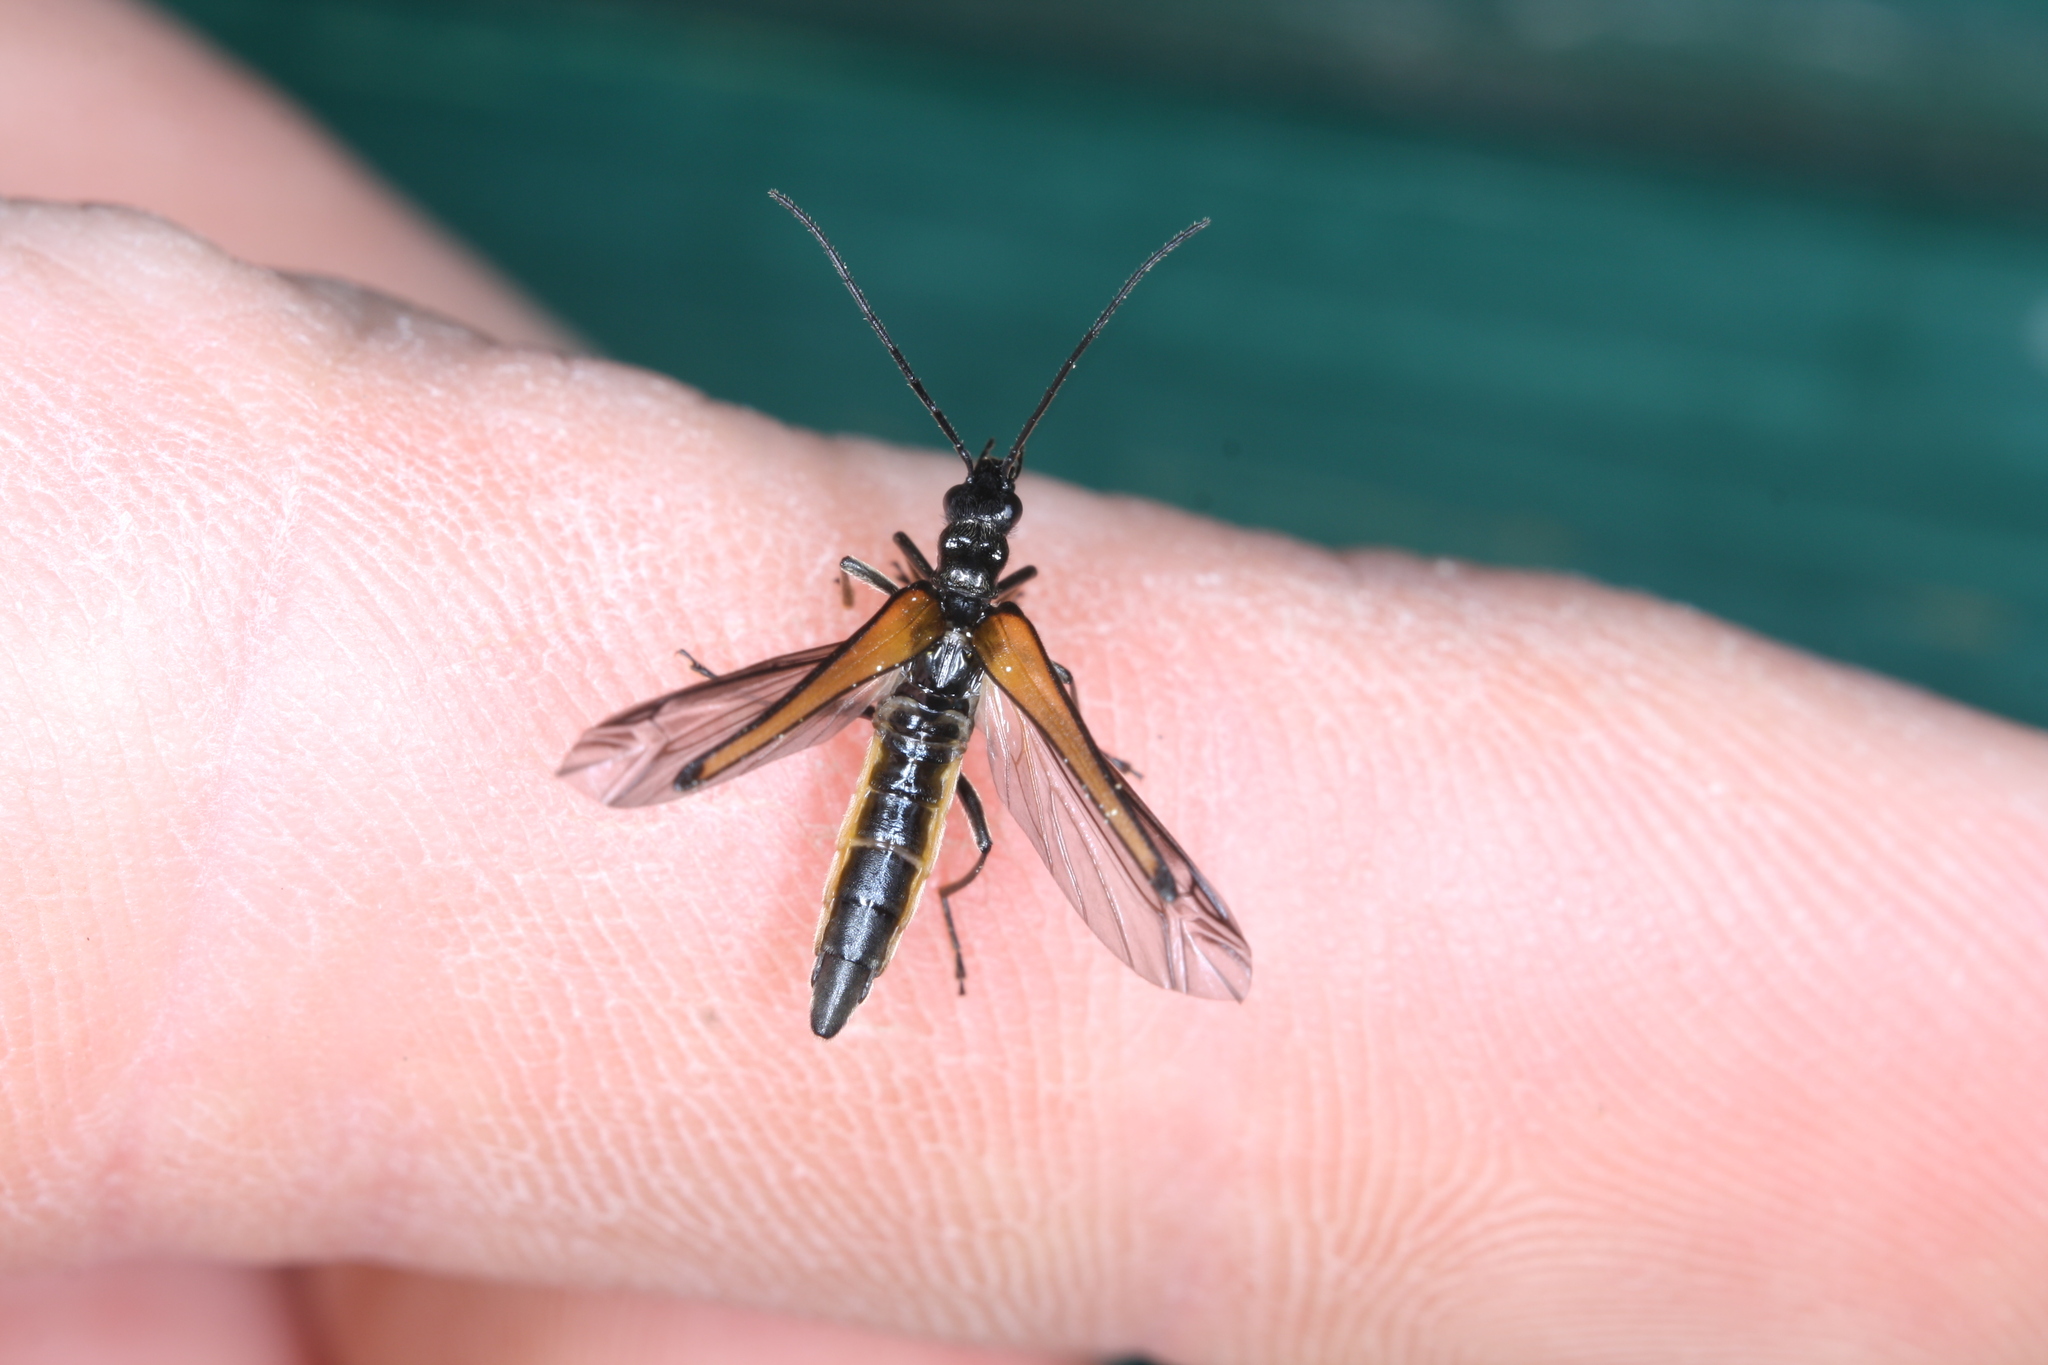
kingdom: Animalia
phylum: Arthropoda
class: Insecta
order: Coleoptera
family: Oedemeridae
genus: Oedemera
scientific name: Oedemera pthysica
